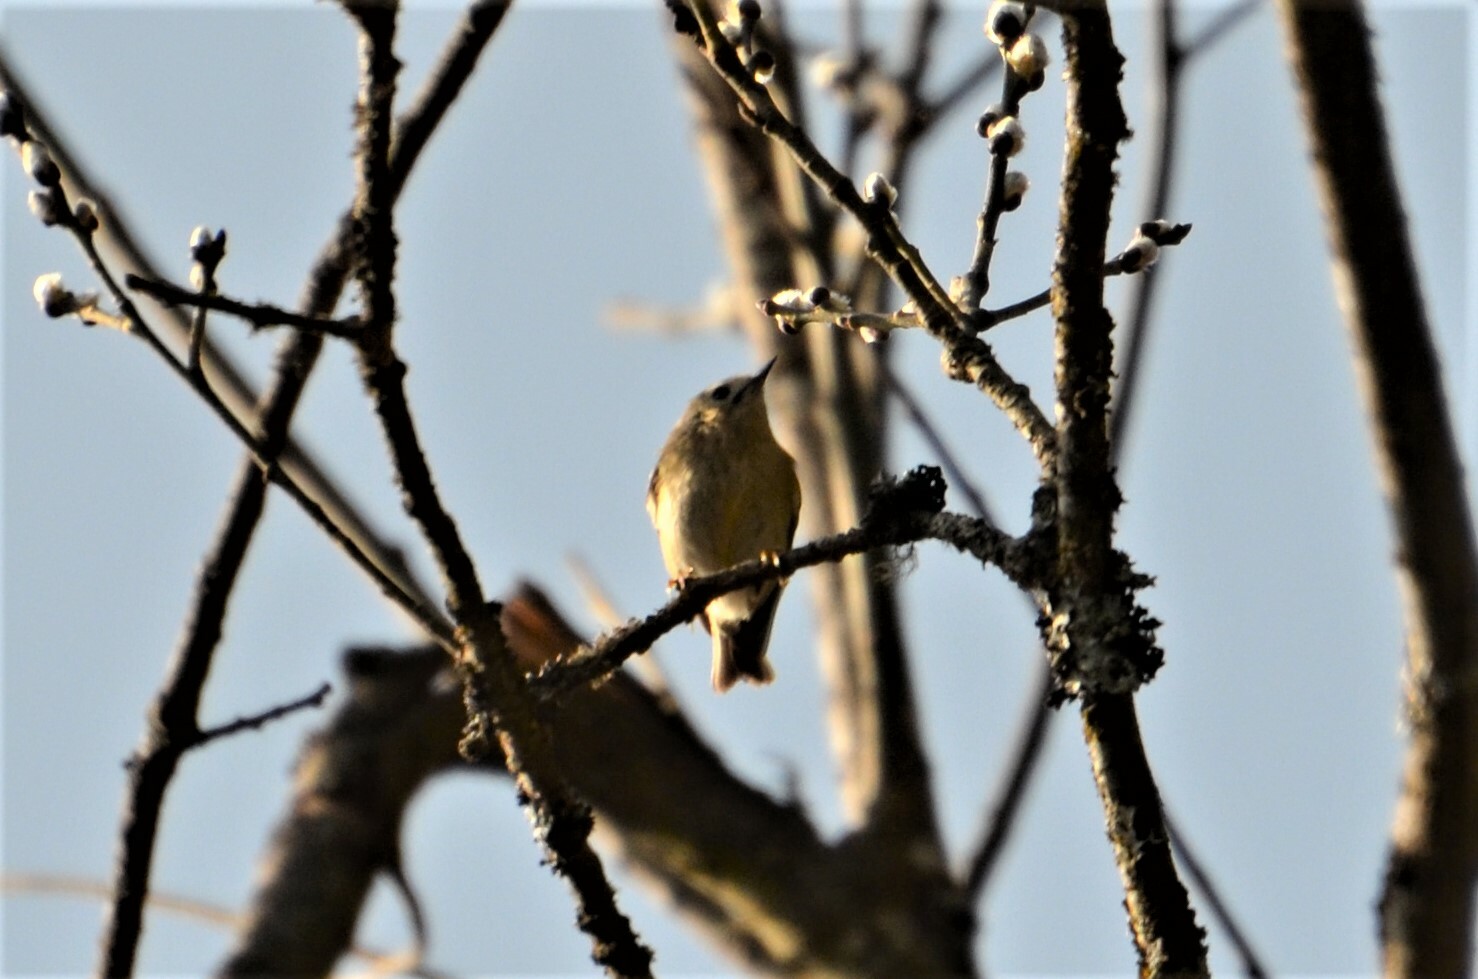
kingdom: Animalia
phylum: Chordata
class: Aves
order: Passeriformes
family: Regulidae
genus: Regulus
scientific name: Regulus regulus
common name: Goldcrest
